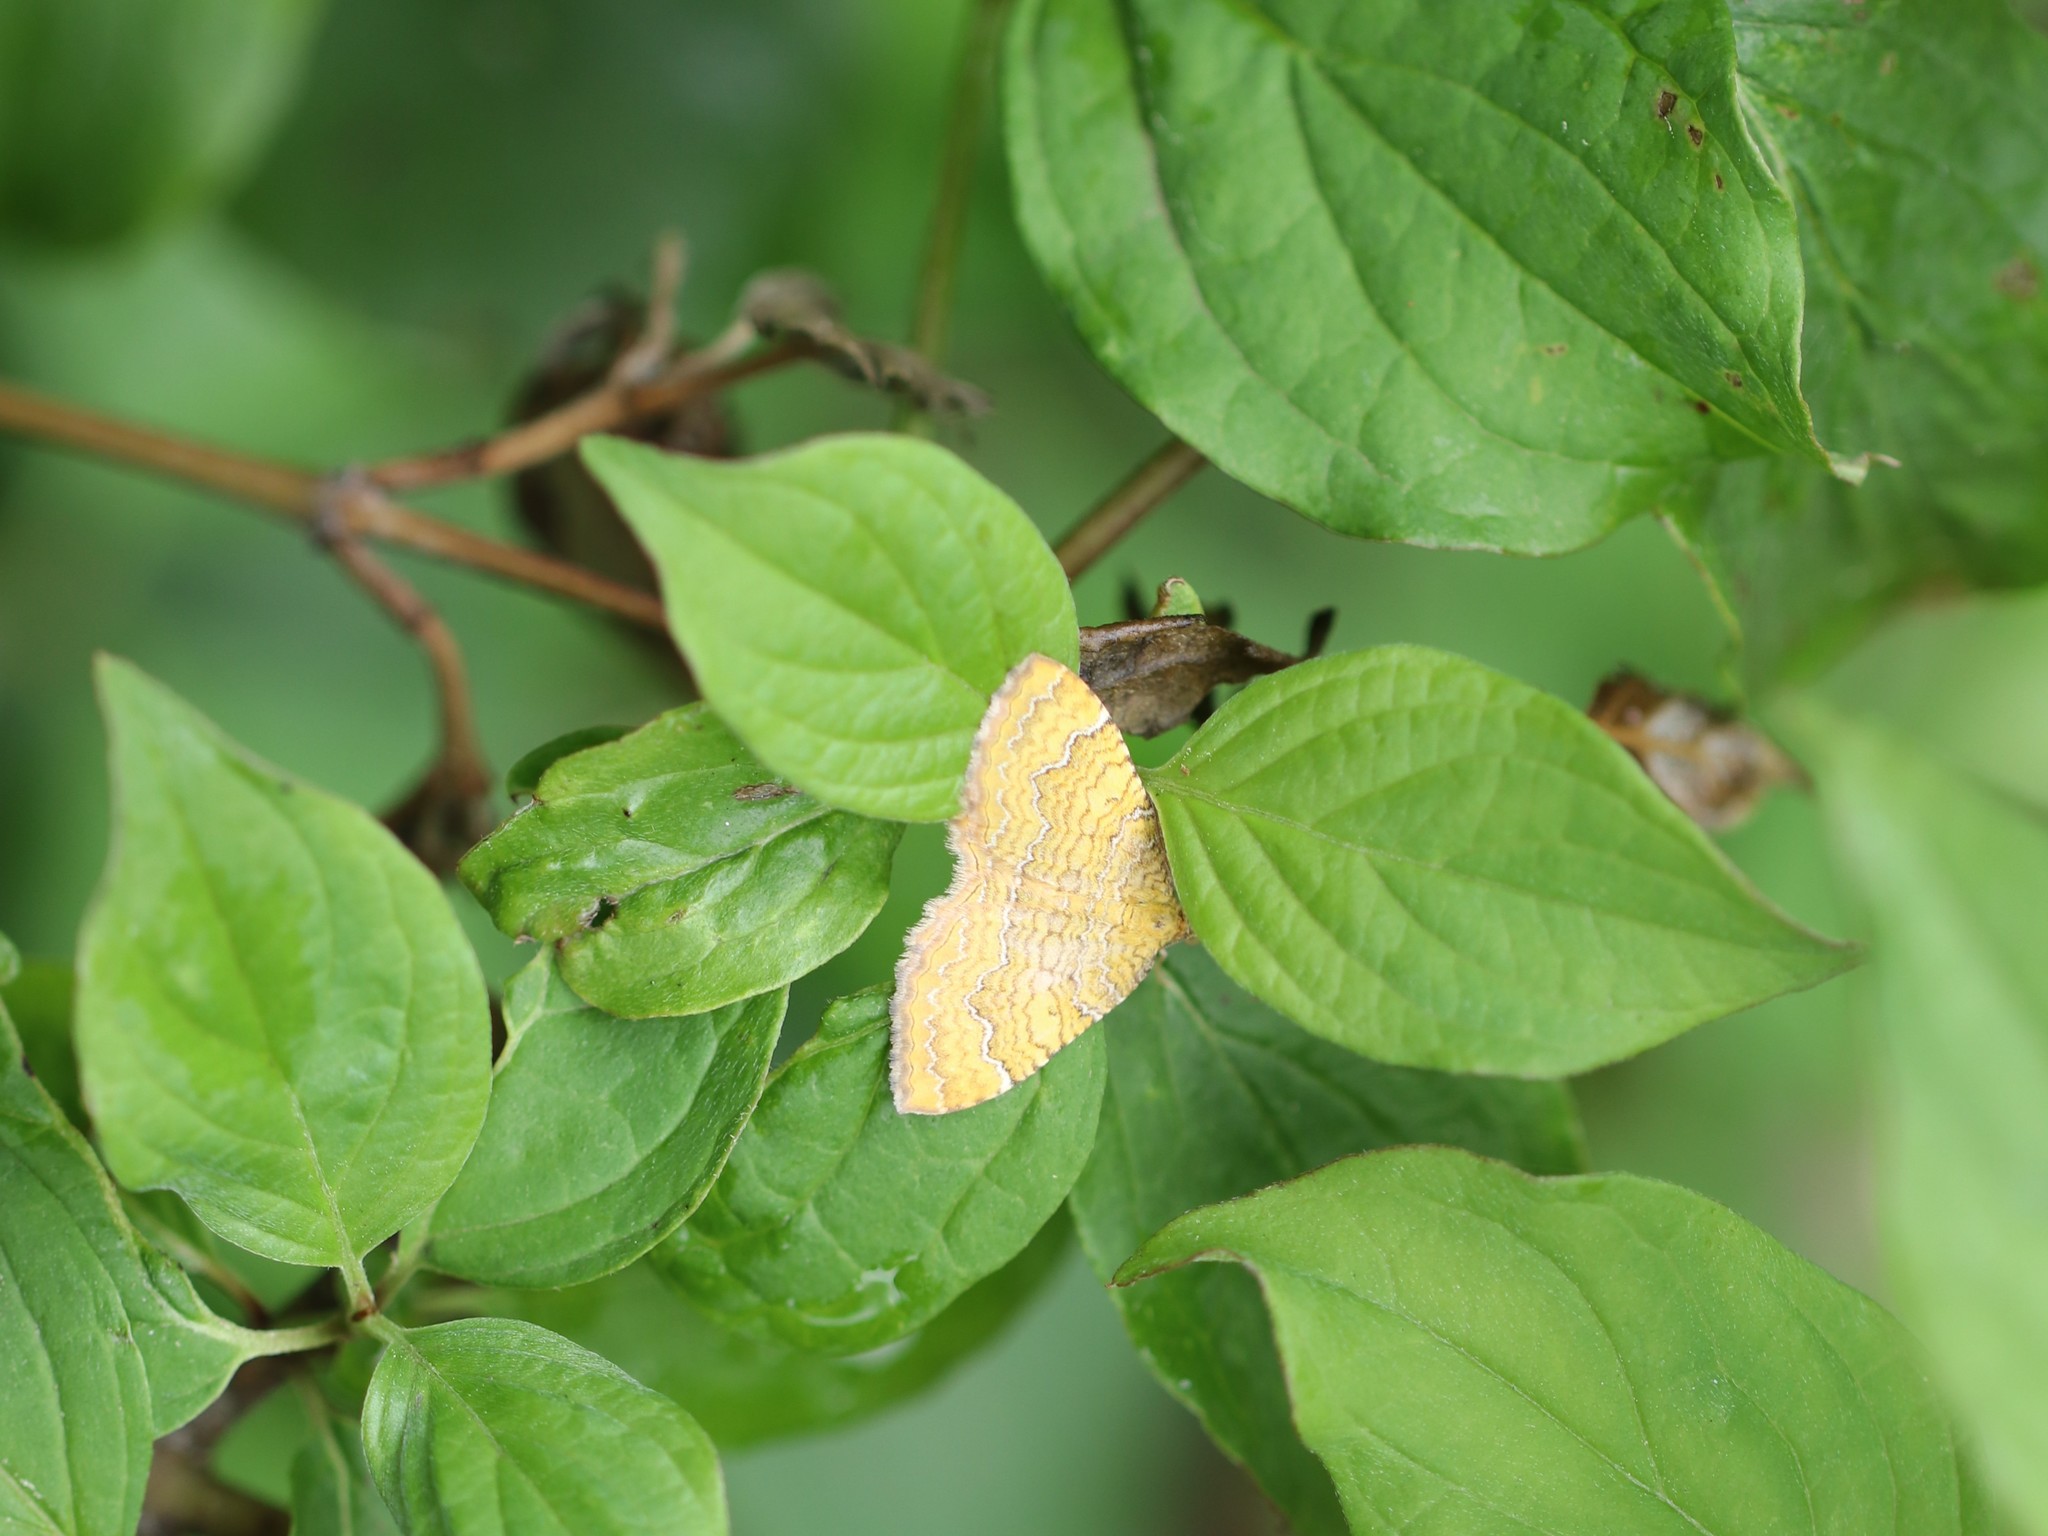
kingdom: Animalia
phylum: Arthropoda
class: Insecta
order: Lepidoptera
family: Geometridae
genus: Camptogramma
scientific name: Camptogramma bilineata
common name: Yellow shell
